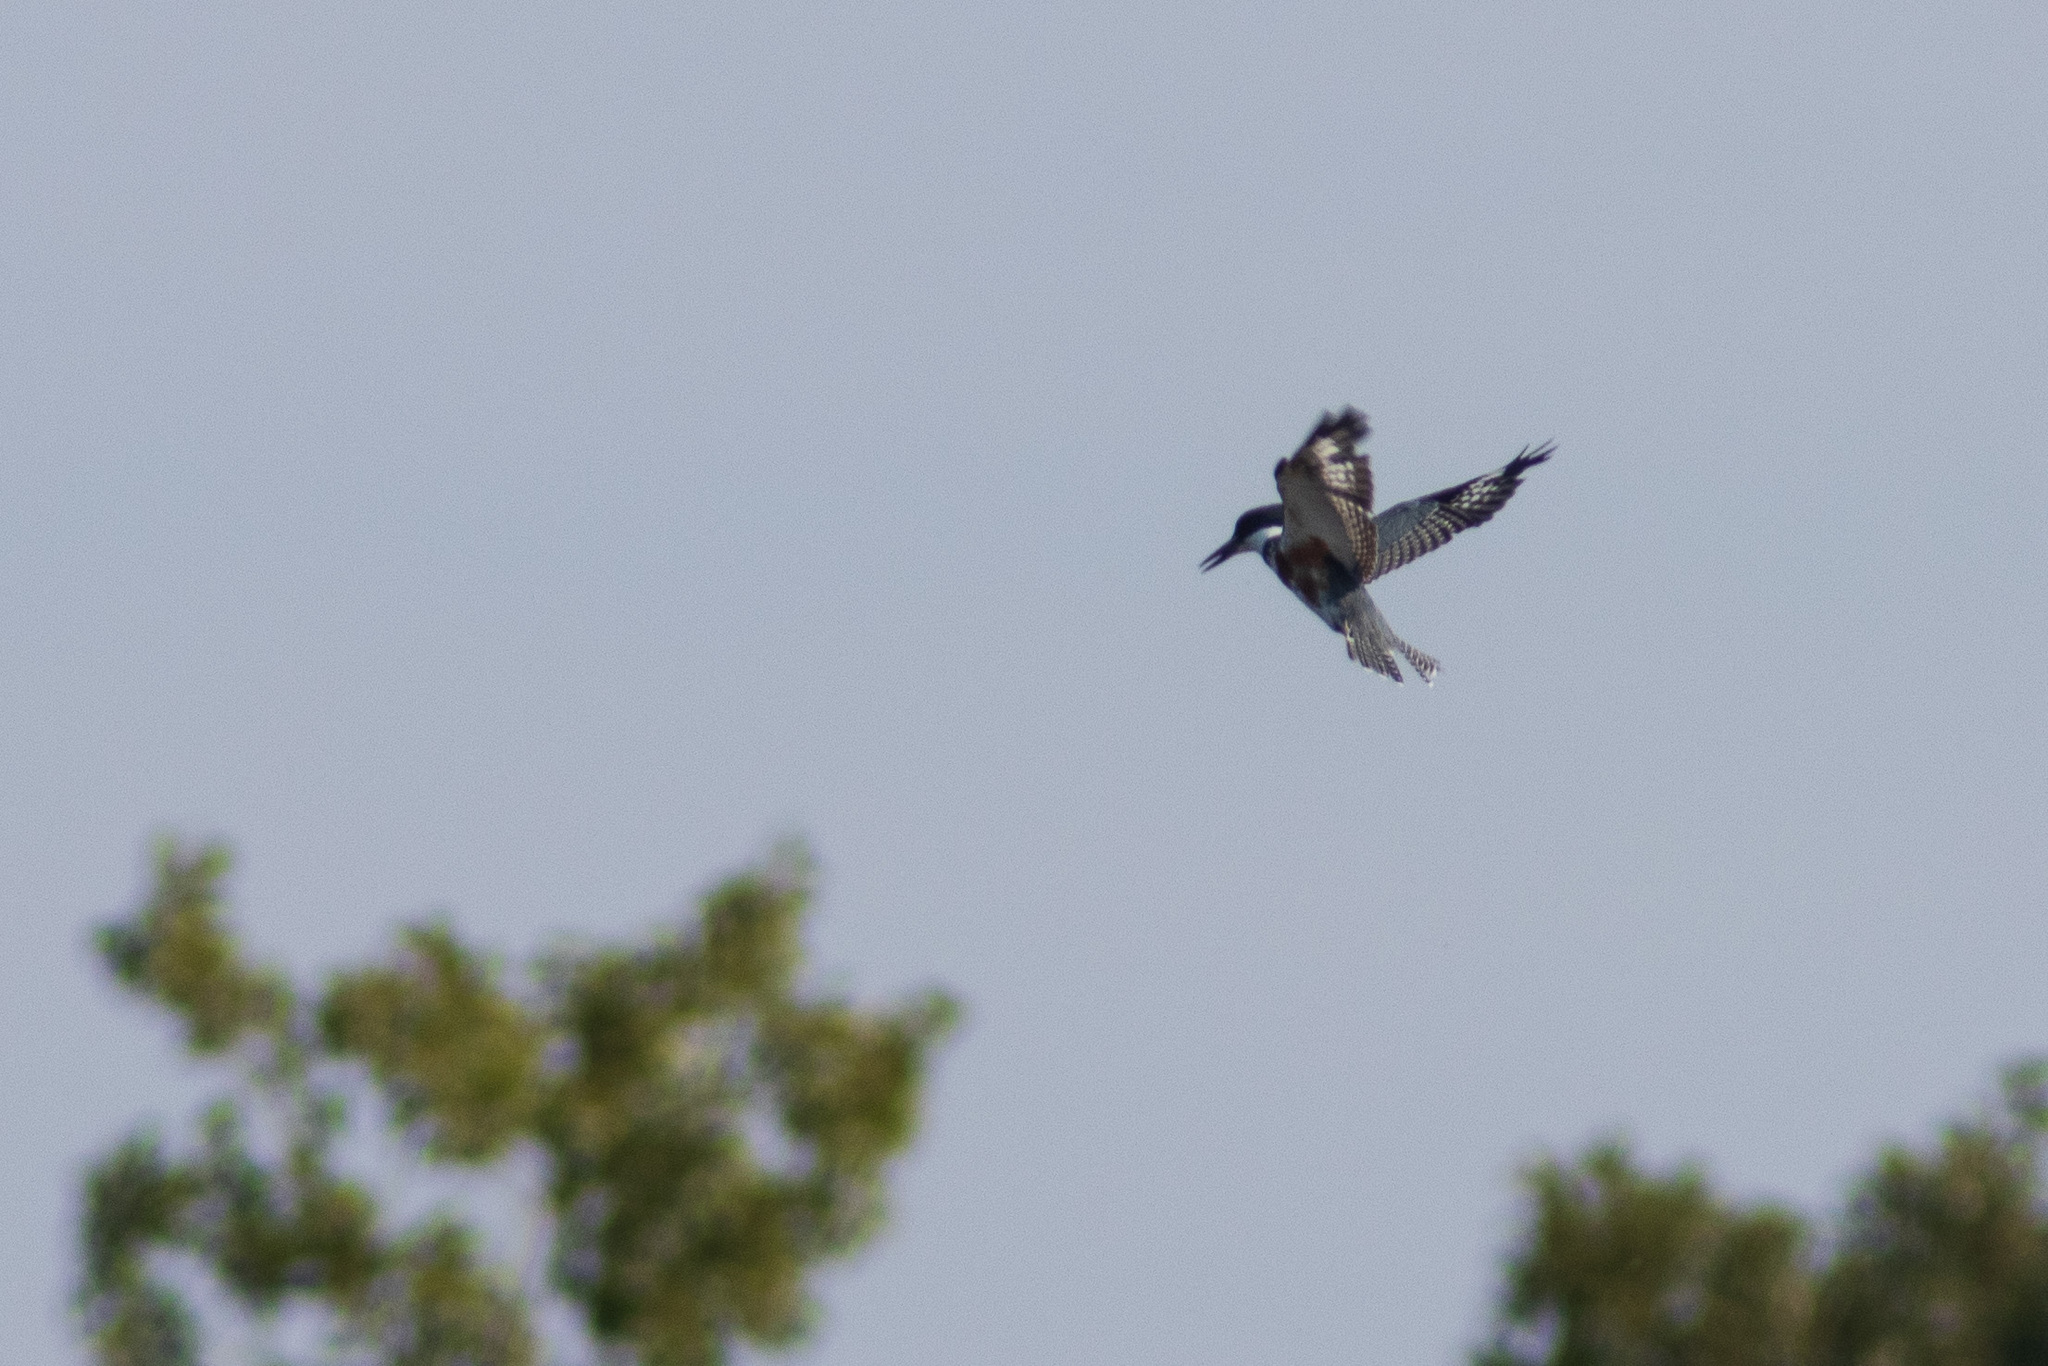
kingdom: Animalia
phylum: Chordata
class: Aves
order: Coraciiformes
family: Alcedinidae
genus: Megaceryle
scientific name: Megaceryle alcyon
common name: Belted kingfisher
